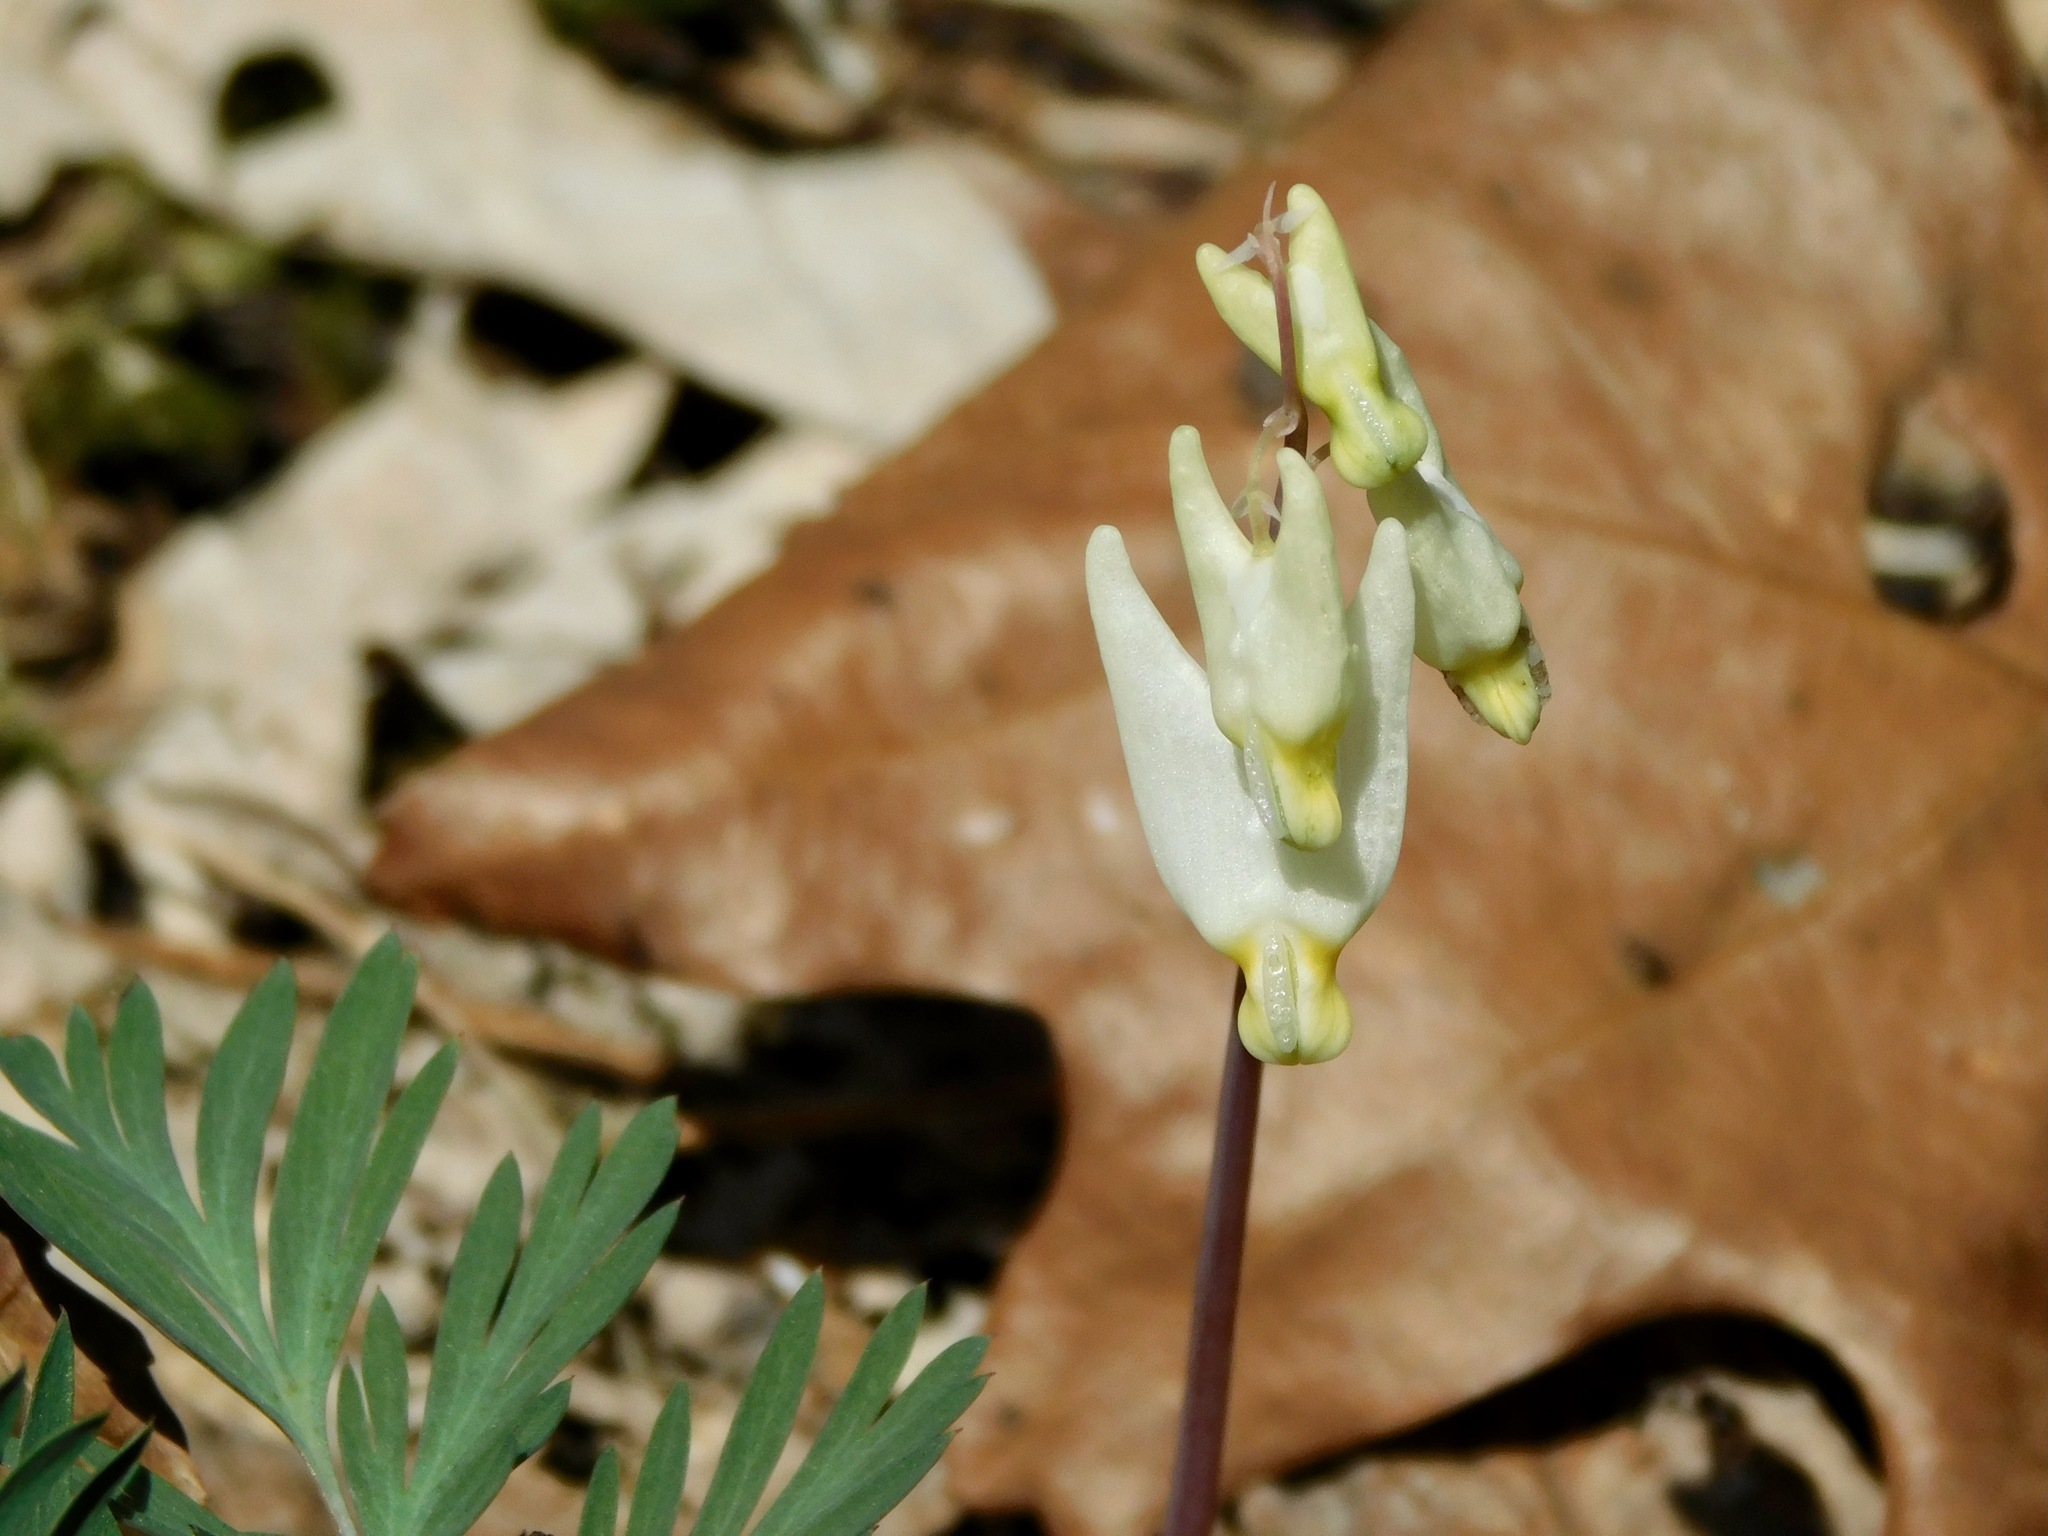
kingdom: Plantae
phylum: Tracheophyta
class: Magnoliopsida
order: Ranunculales
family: Papaveraceae
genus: Dicentra
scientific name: Dicentra cucullaria
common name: Dutchman's breeches
